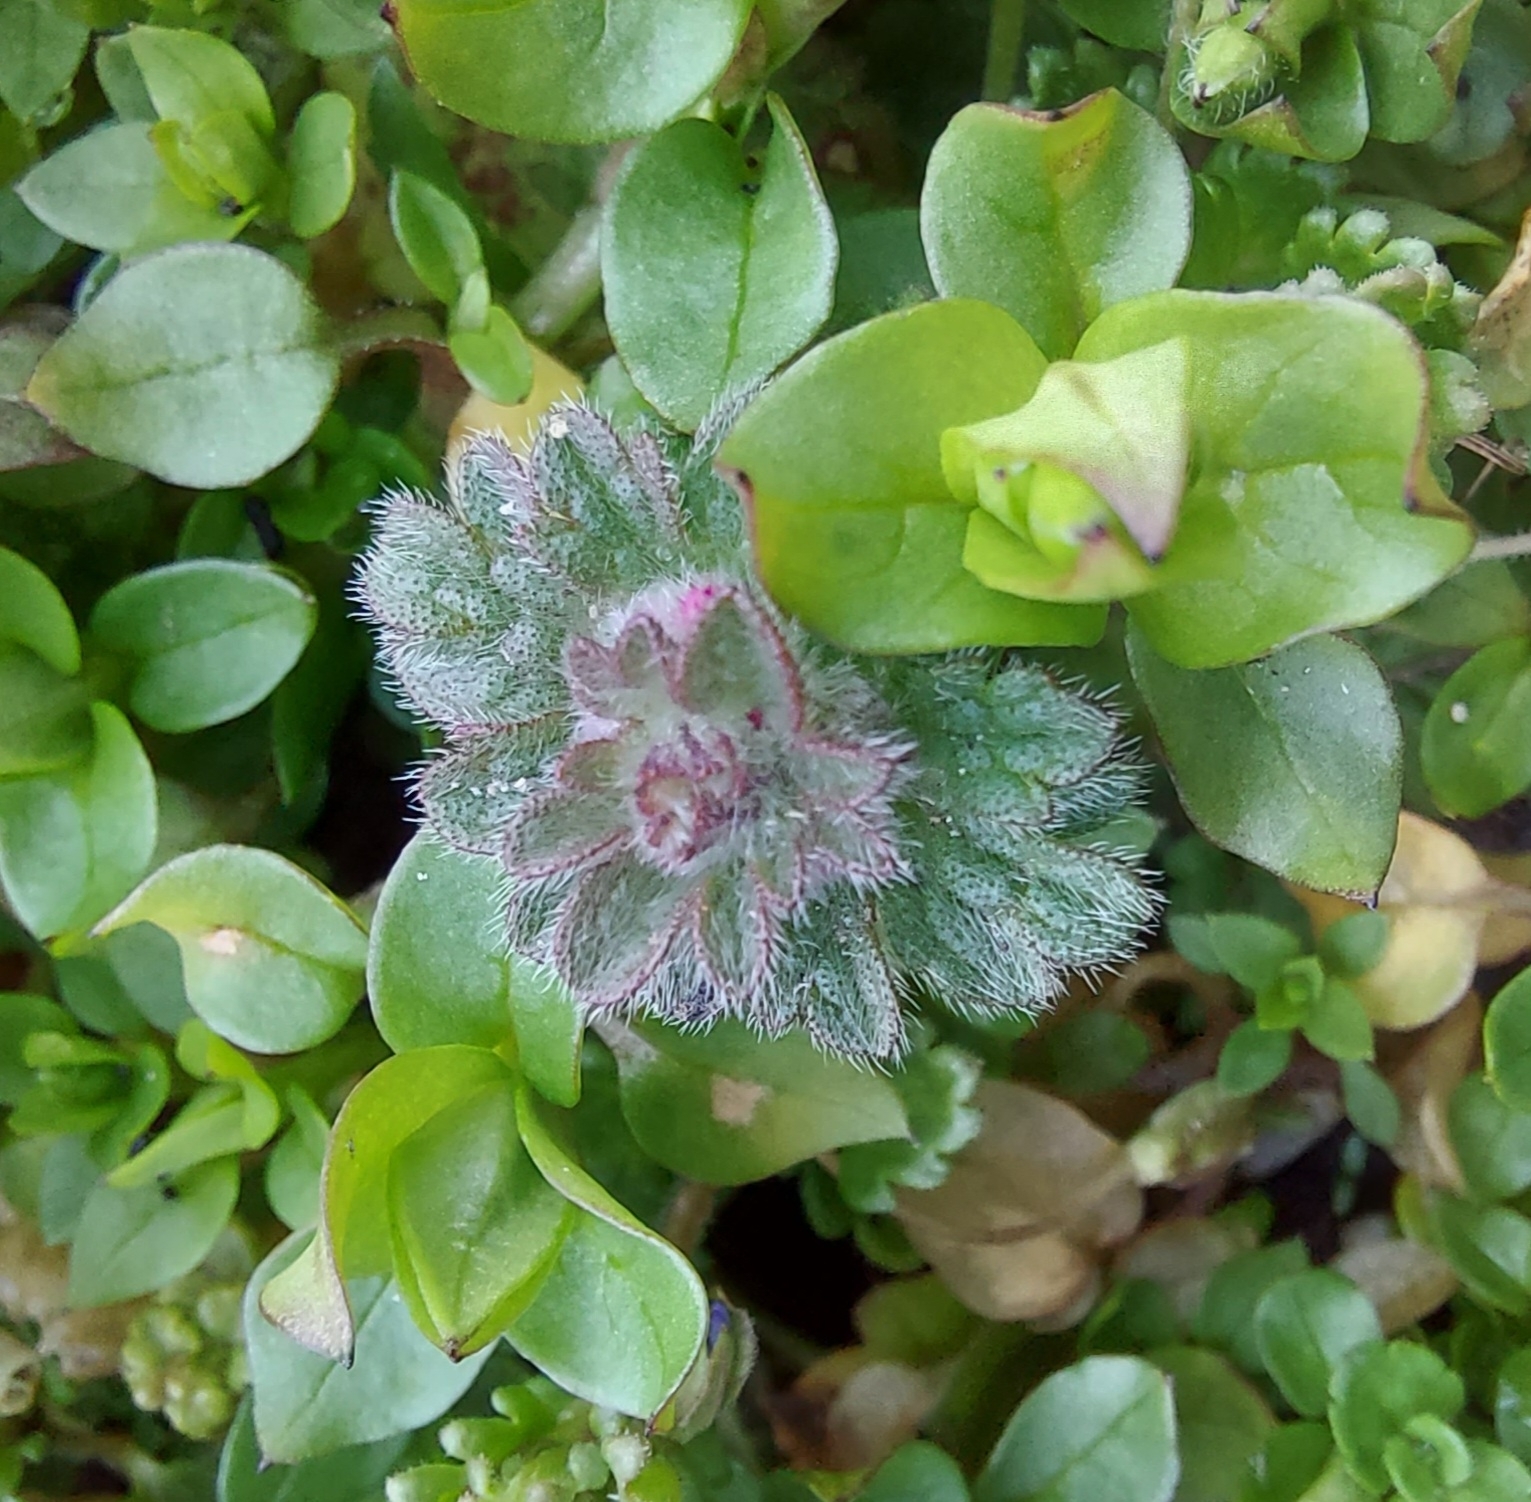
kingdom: Plantae
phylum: Tracheophyta
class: Magnoliopsida
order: Lamiales
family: Lamiaceae
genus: Lamium
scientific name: Lamium amplexicaule
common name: Henbit dead-nettle
